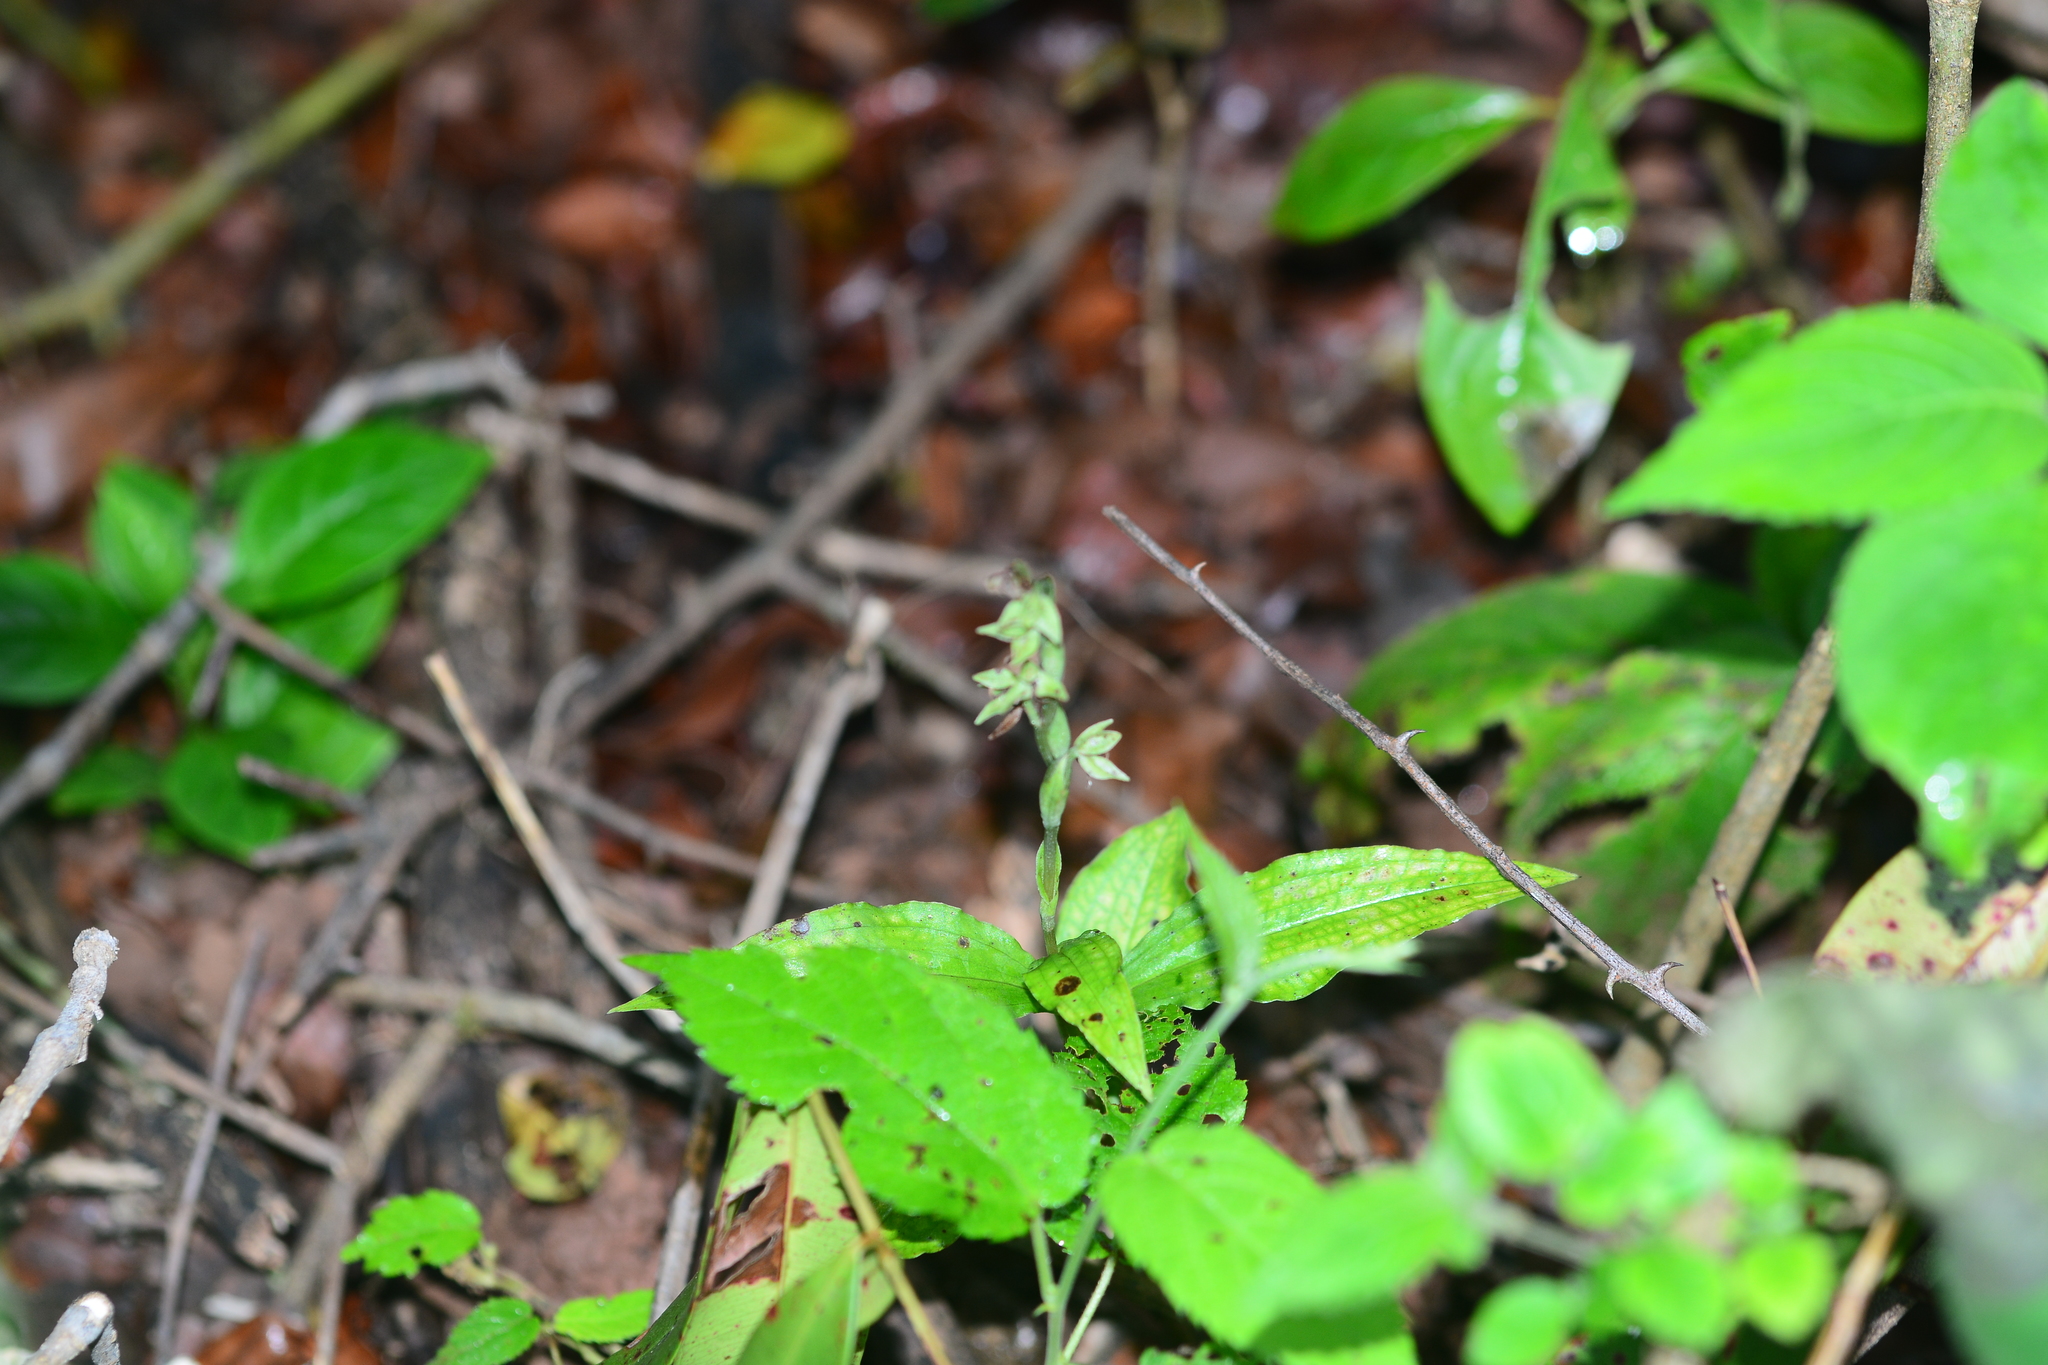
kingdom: Plantae
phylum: Tracheophyta
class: Liliopsida
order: Asparagales
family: Orchidaceae
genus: Habenaria
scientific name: Habenaria multicaudata
